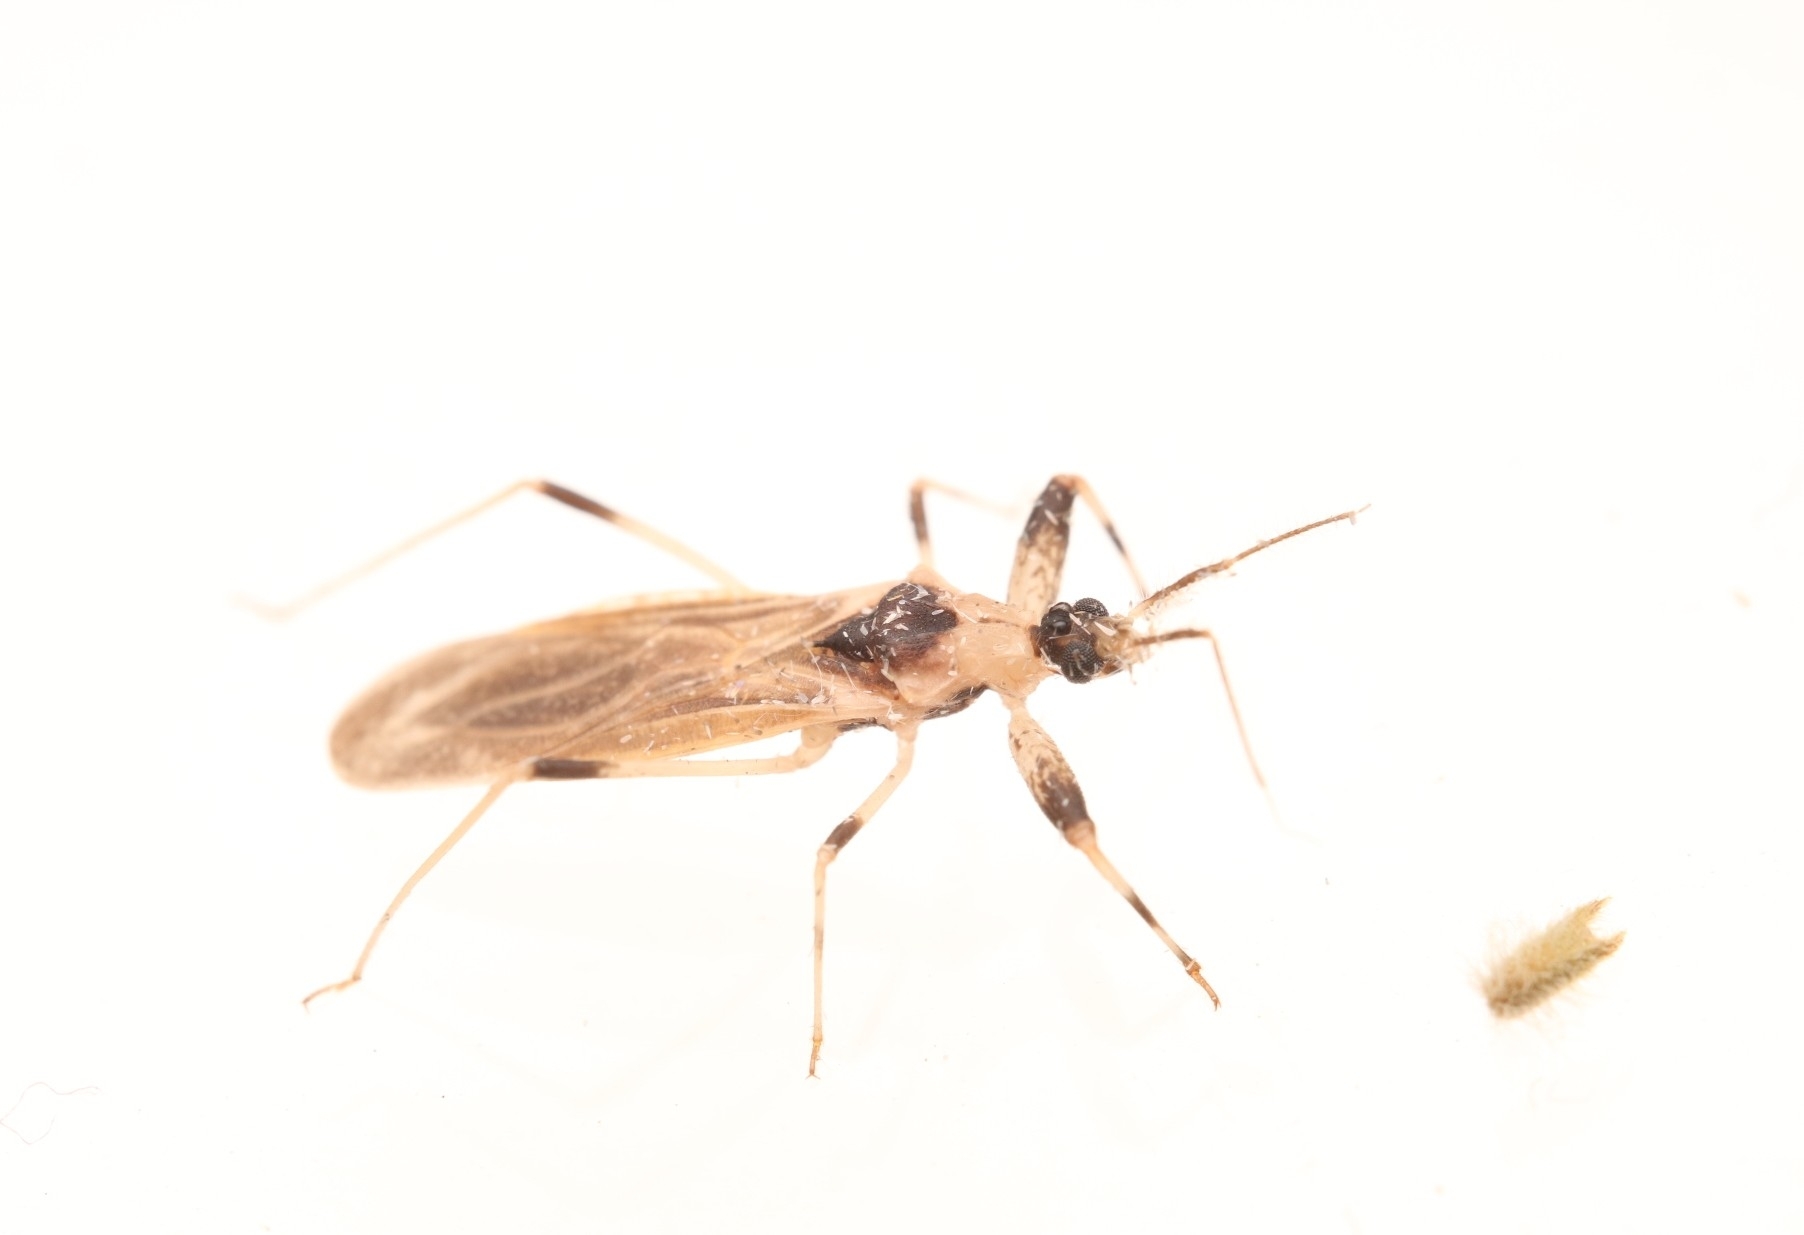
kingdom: Animalia
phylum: Arthropoda
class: Insecta
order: Hemiptera
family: Reduviidae
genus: Oncocephalus
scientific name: Oncocephalus nubilus
